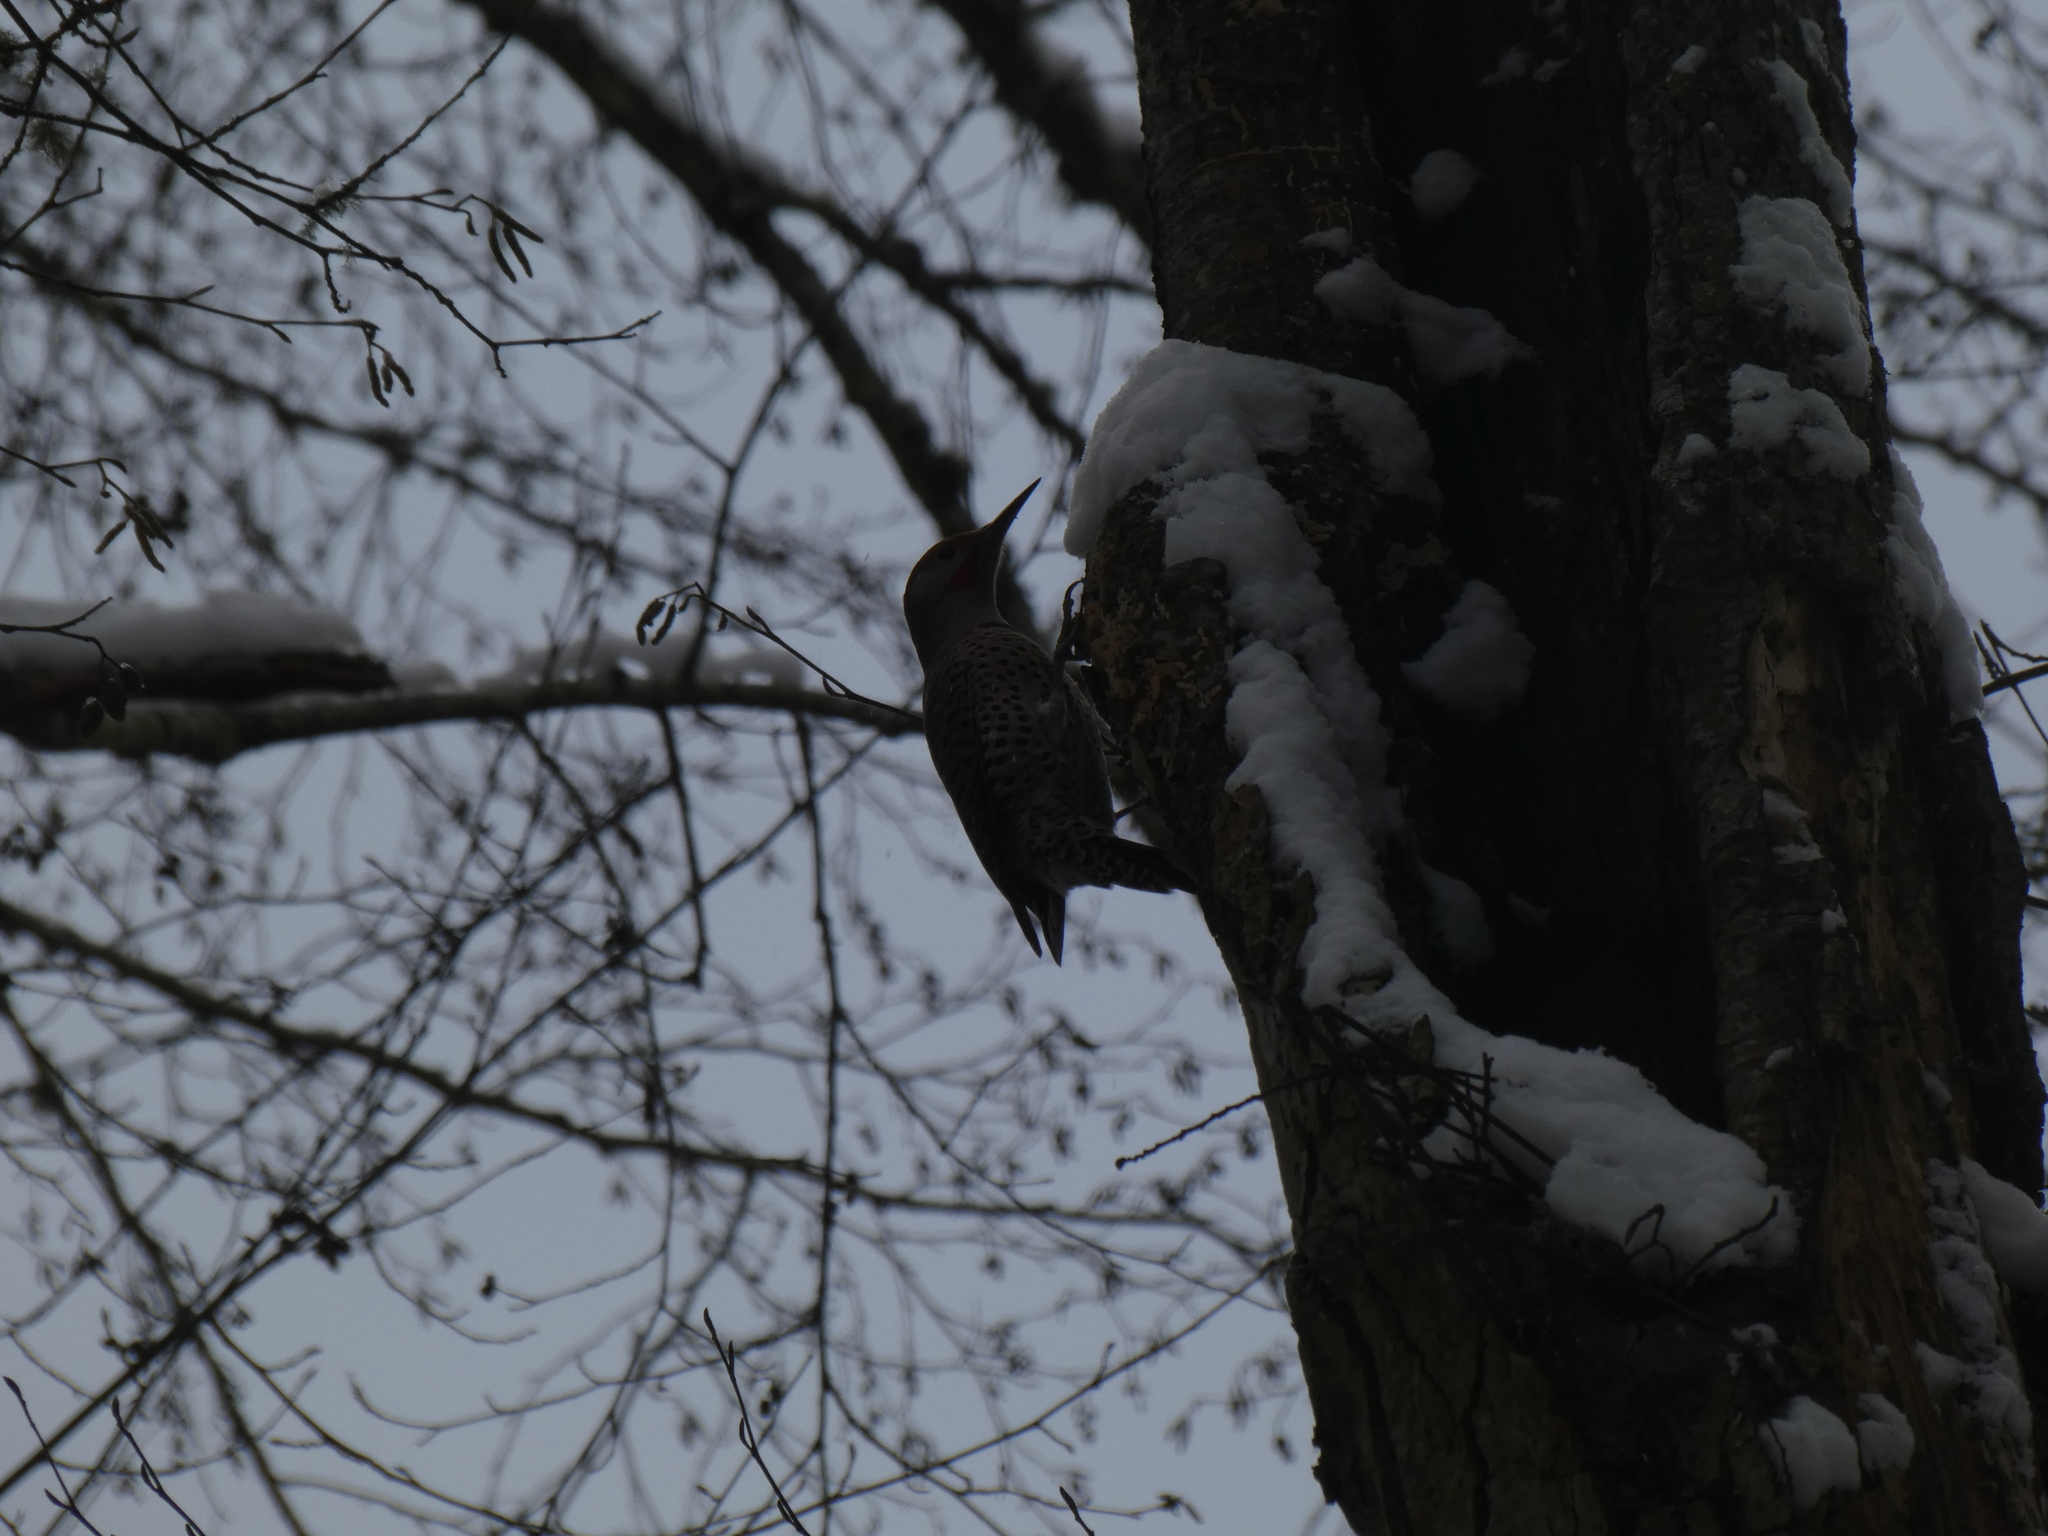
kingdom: Animalia
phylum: Chordata
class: Aves
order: Piciformes
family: Picidae
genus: Colaptes
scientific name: Colaptes auratus
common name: Northern flicker
